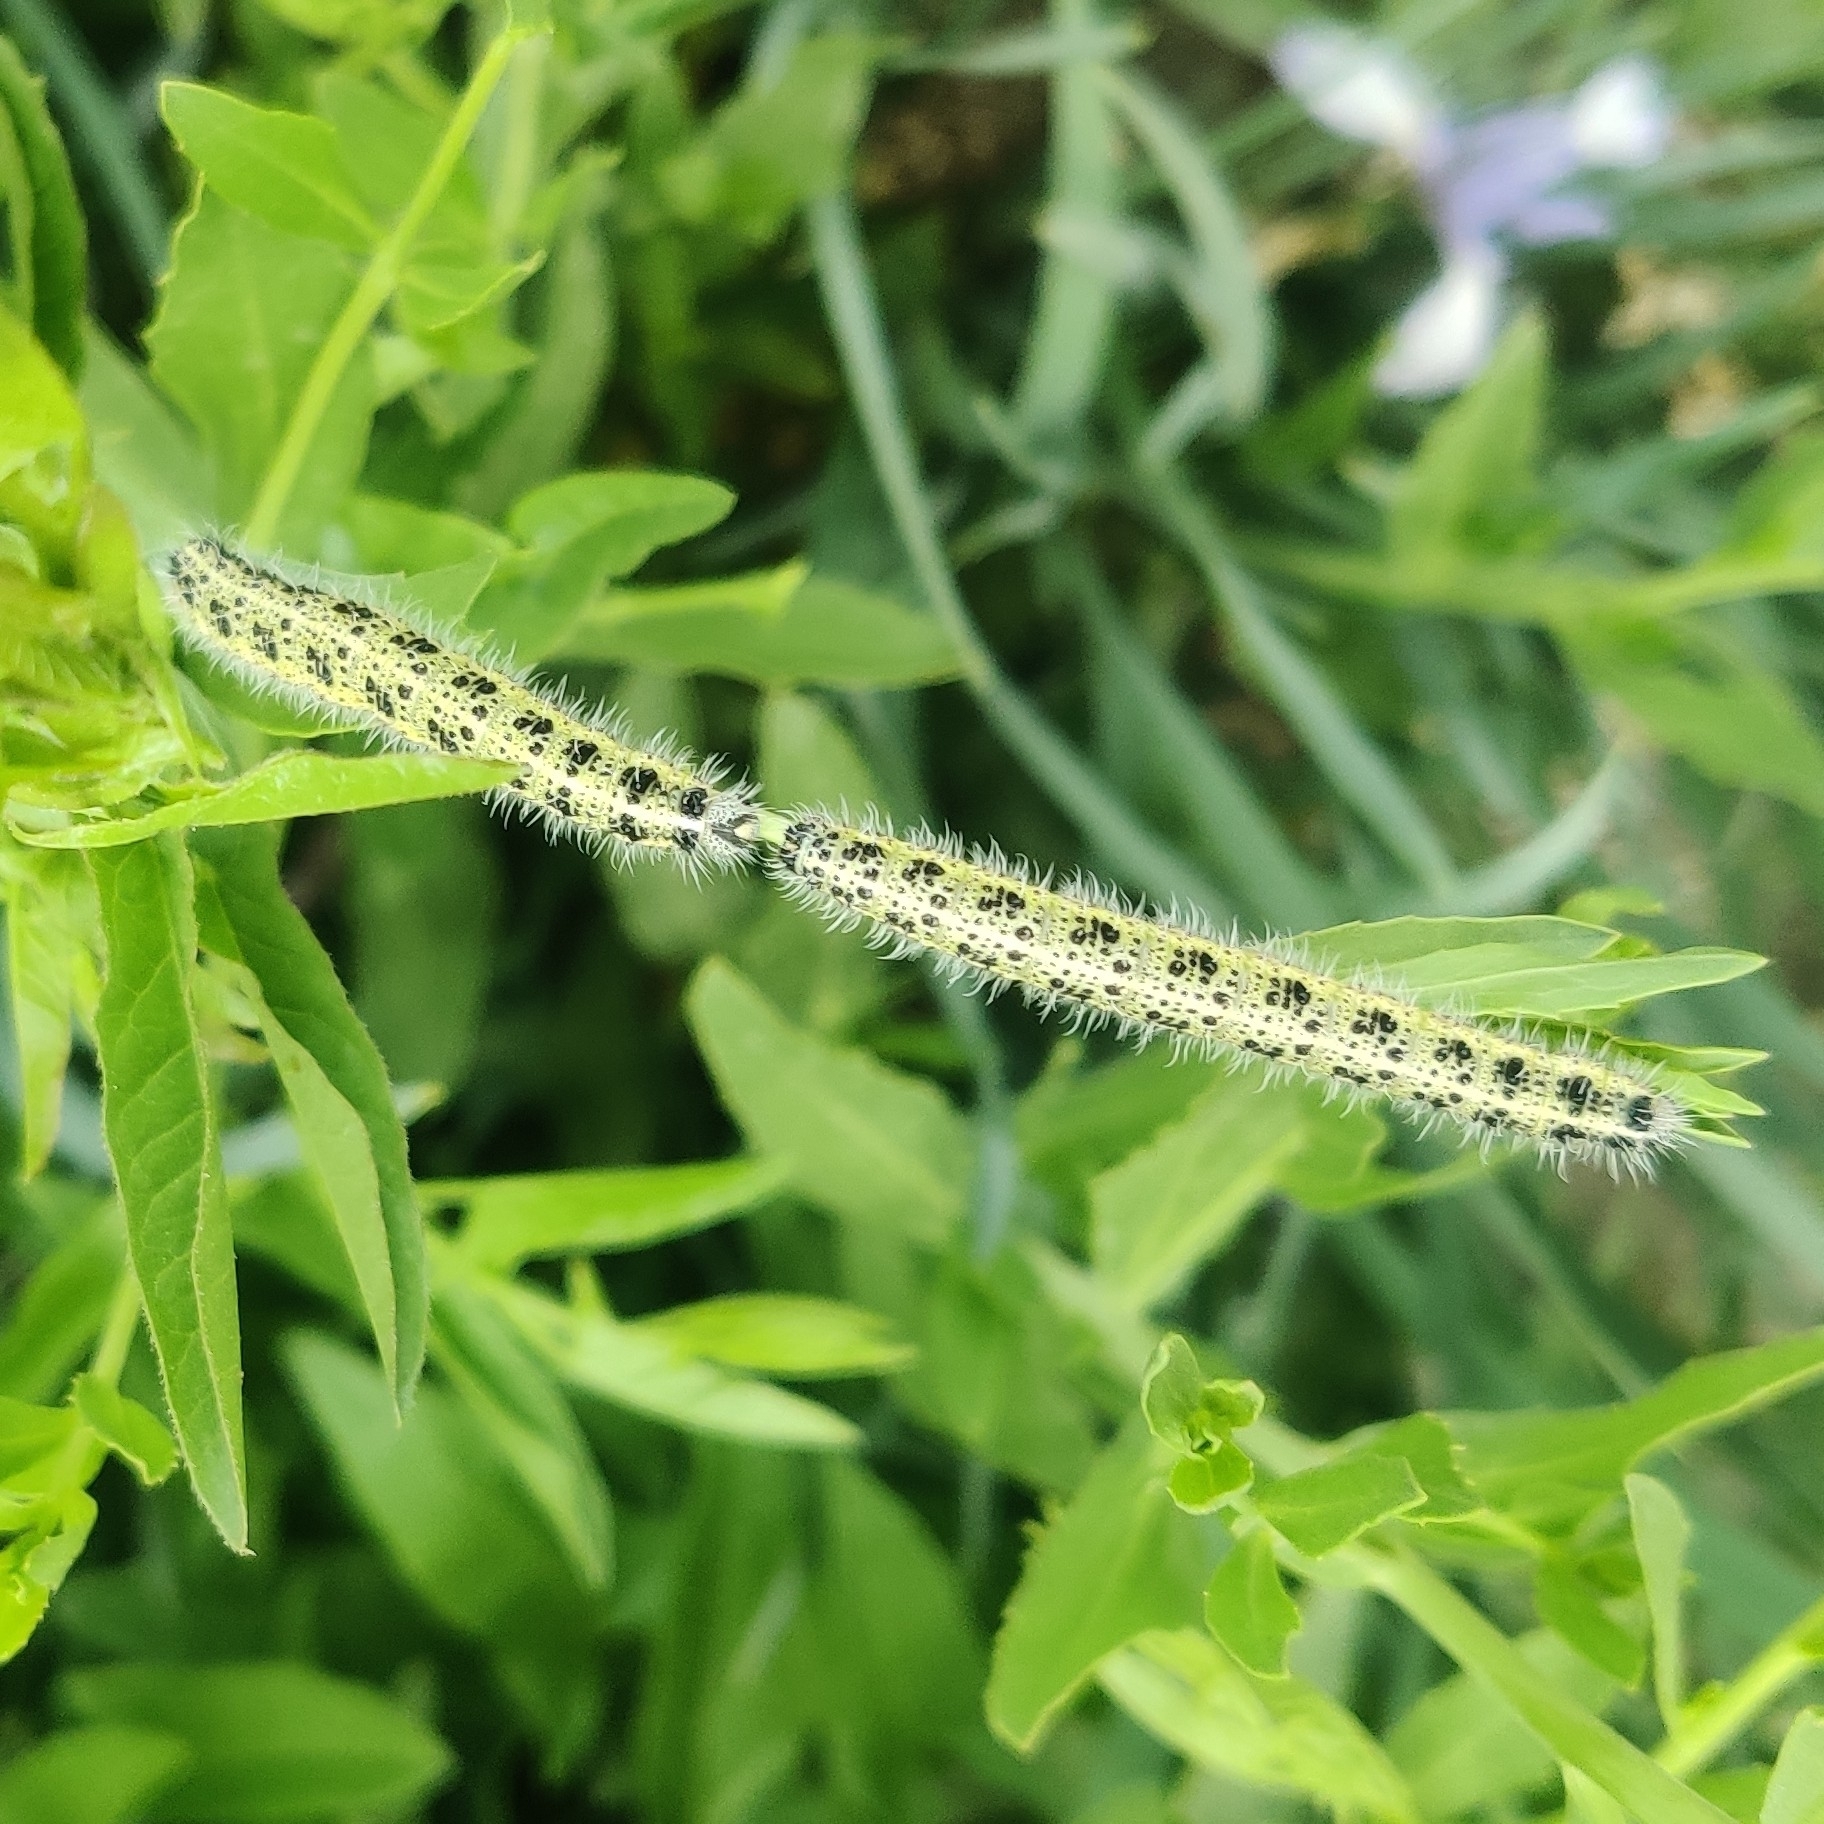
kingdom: Animalia
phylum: Arthropoda
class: Insecta
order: Lepidoptera
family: Pieridae
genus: Pieris
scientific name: Pieris brassicae
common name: Large white
